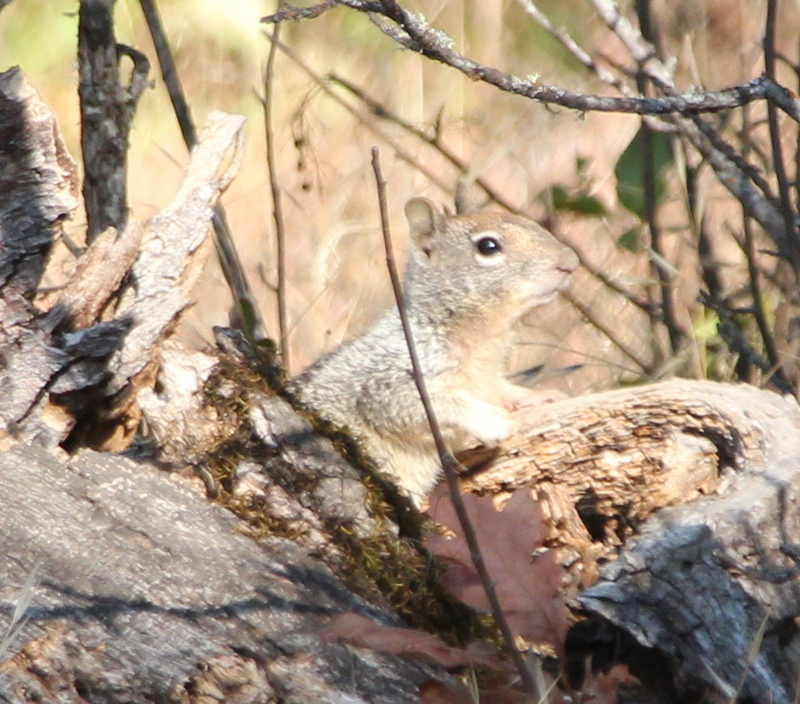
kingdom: Animalia
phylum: Chordata
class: Mammalia
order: Rodentia
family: Sciuridae
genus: Otospermophilus
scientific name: Otospermophilus beecheyi
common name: California ground squirrel
